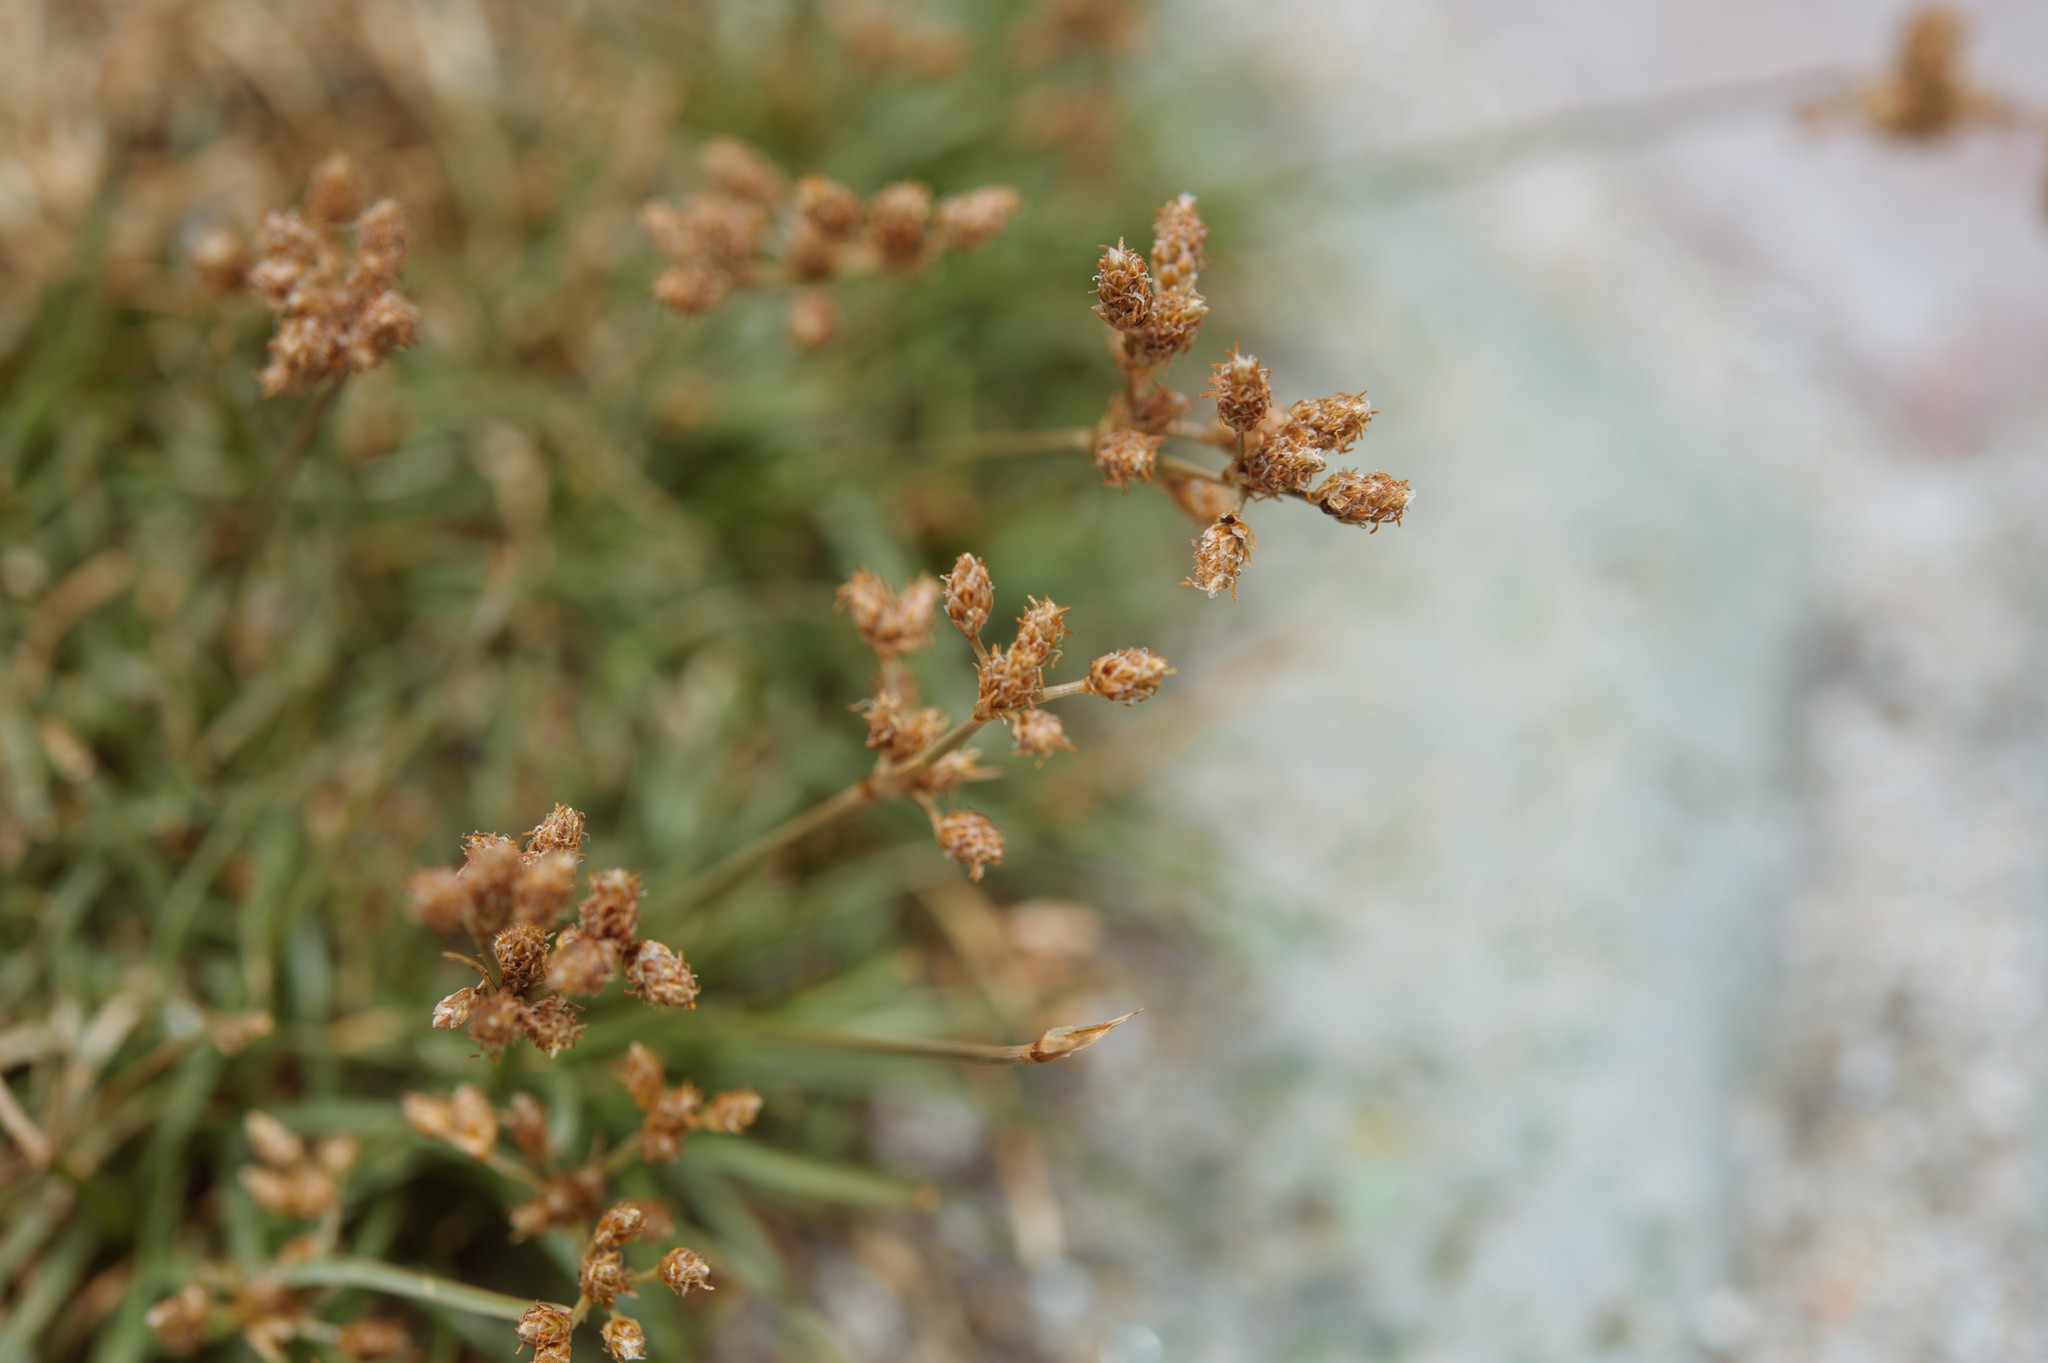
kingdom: Plantae
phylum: Tracheophyta
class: Liliopsida
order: Poales
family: Cyperaceae
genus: Fimbristylis
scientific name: Fimbristylis cymosa
